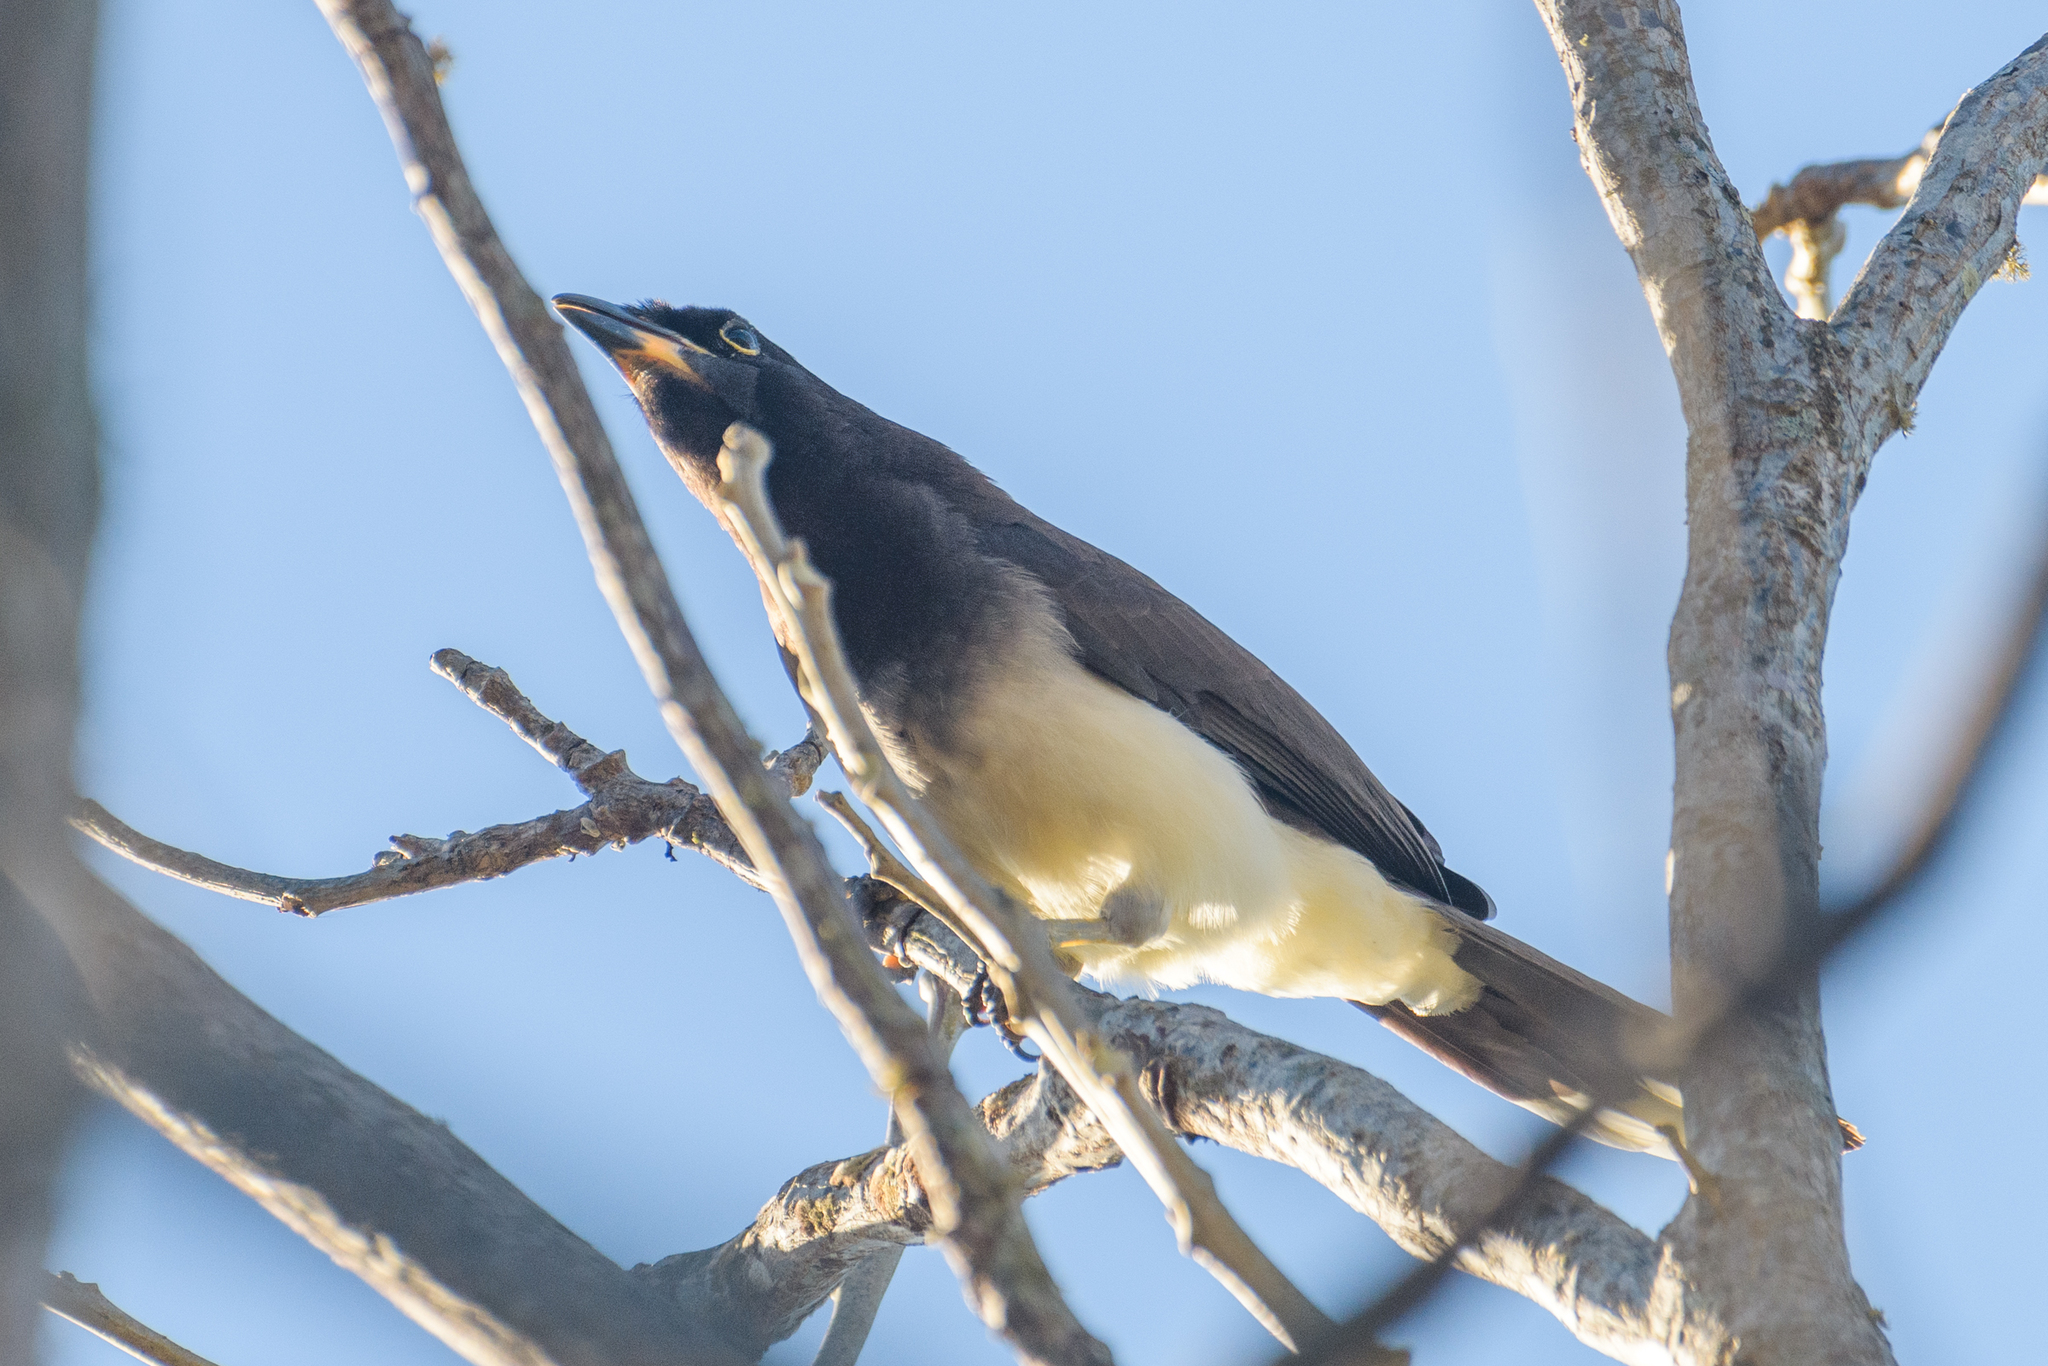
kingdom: Animalia
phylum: Chordata
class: Aves
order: Passeriformes
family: Corvidae
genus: Psilorhinus
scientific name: Psilorhinus morio
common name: Brown jay
